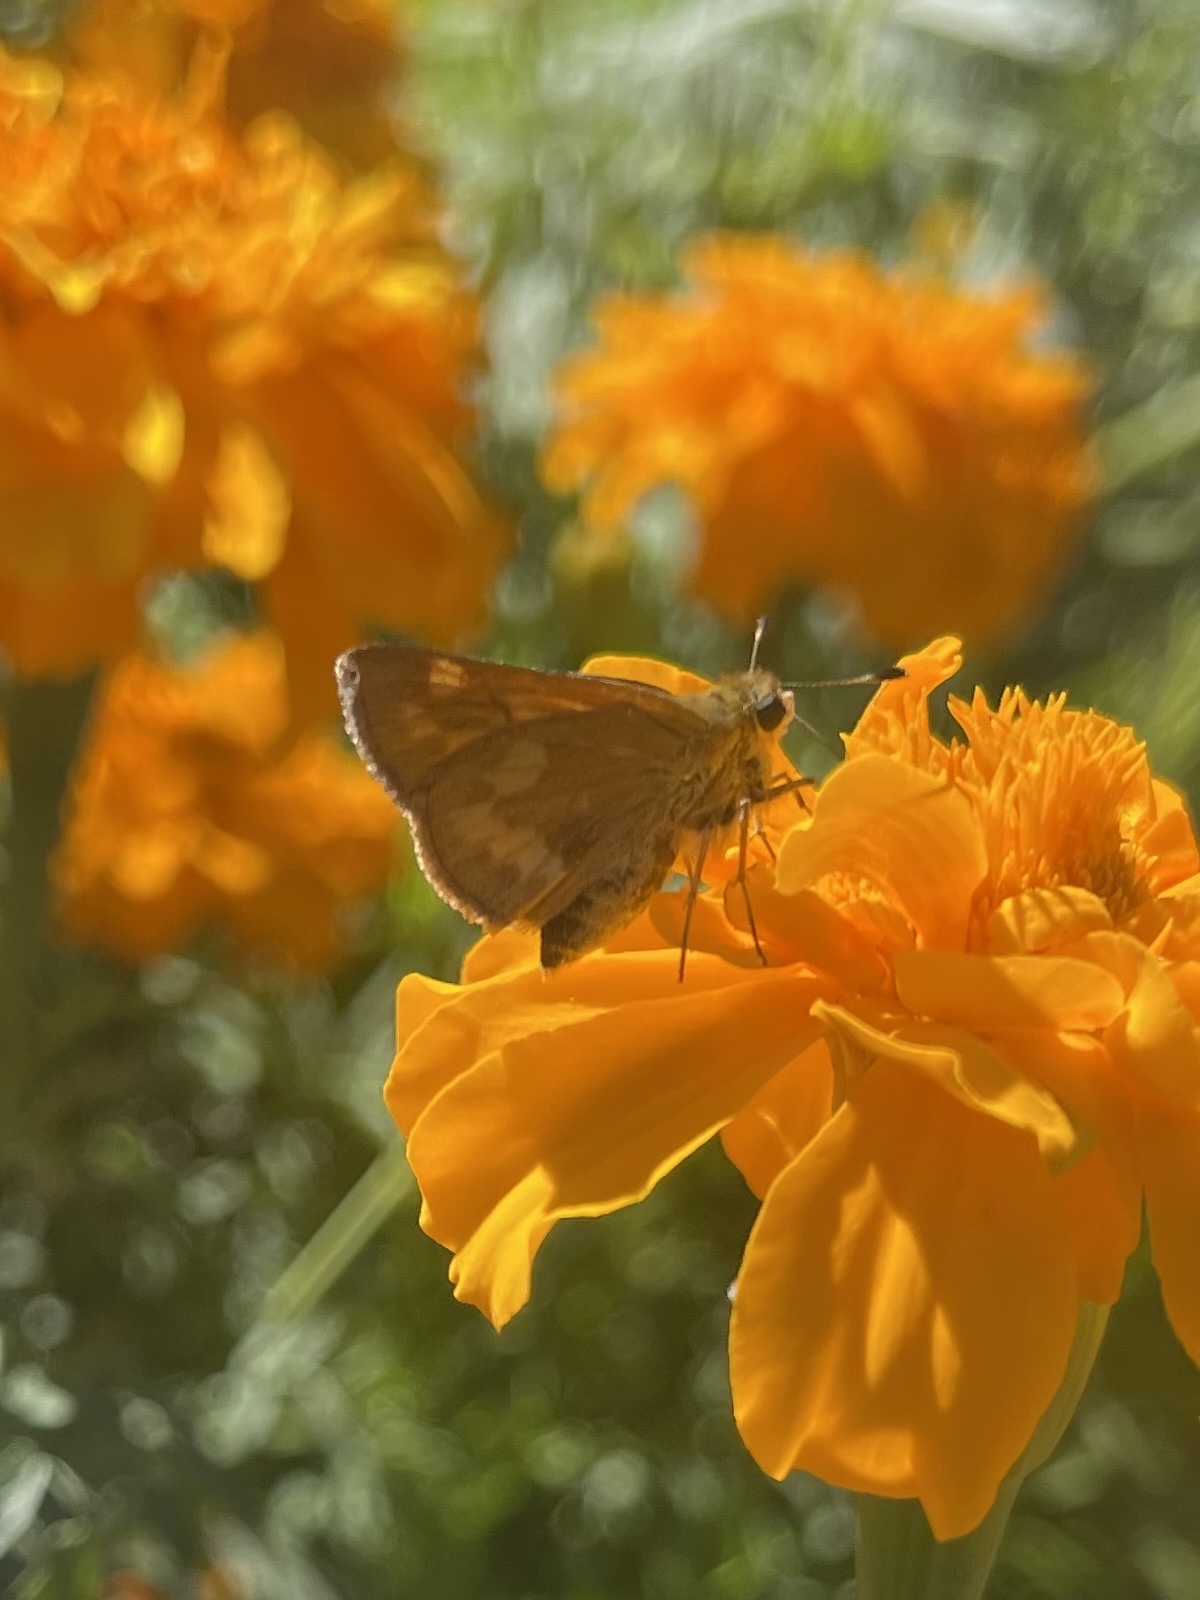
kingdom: Animalia
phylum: Arthropoda
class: Insecta
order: Lepidoptera
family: Hesperiidae
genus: Ochlodes
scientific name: Ochlodes sylvanoides
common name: Woodland skipper
